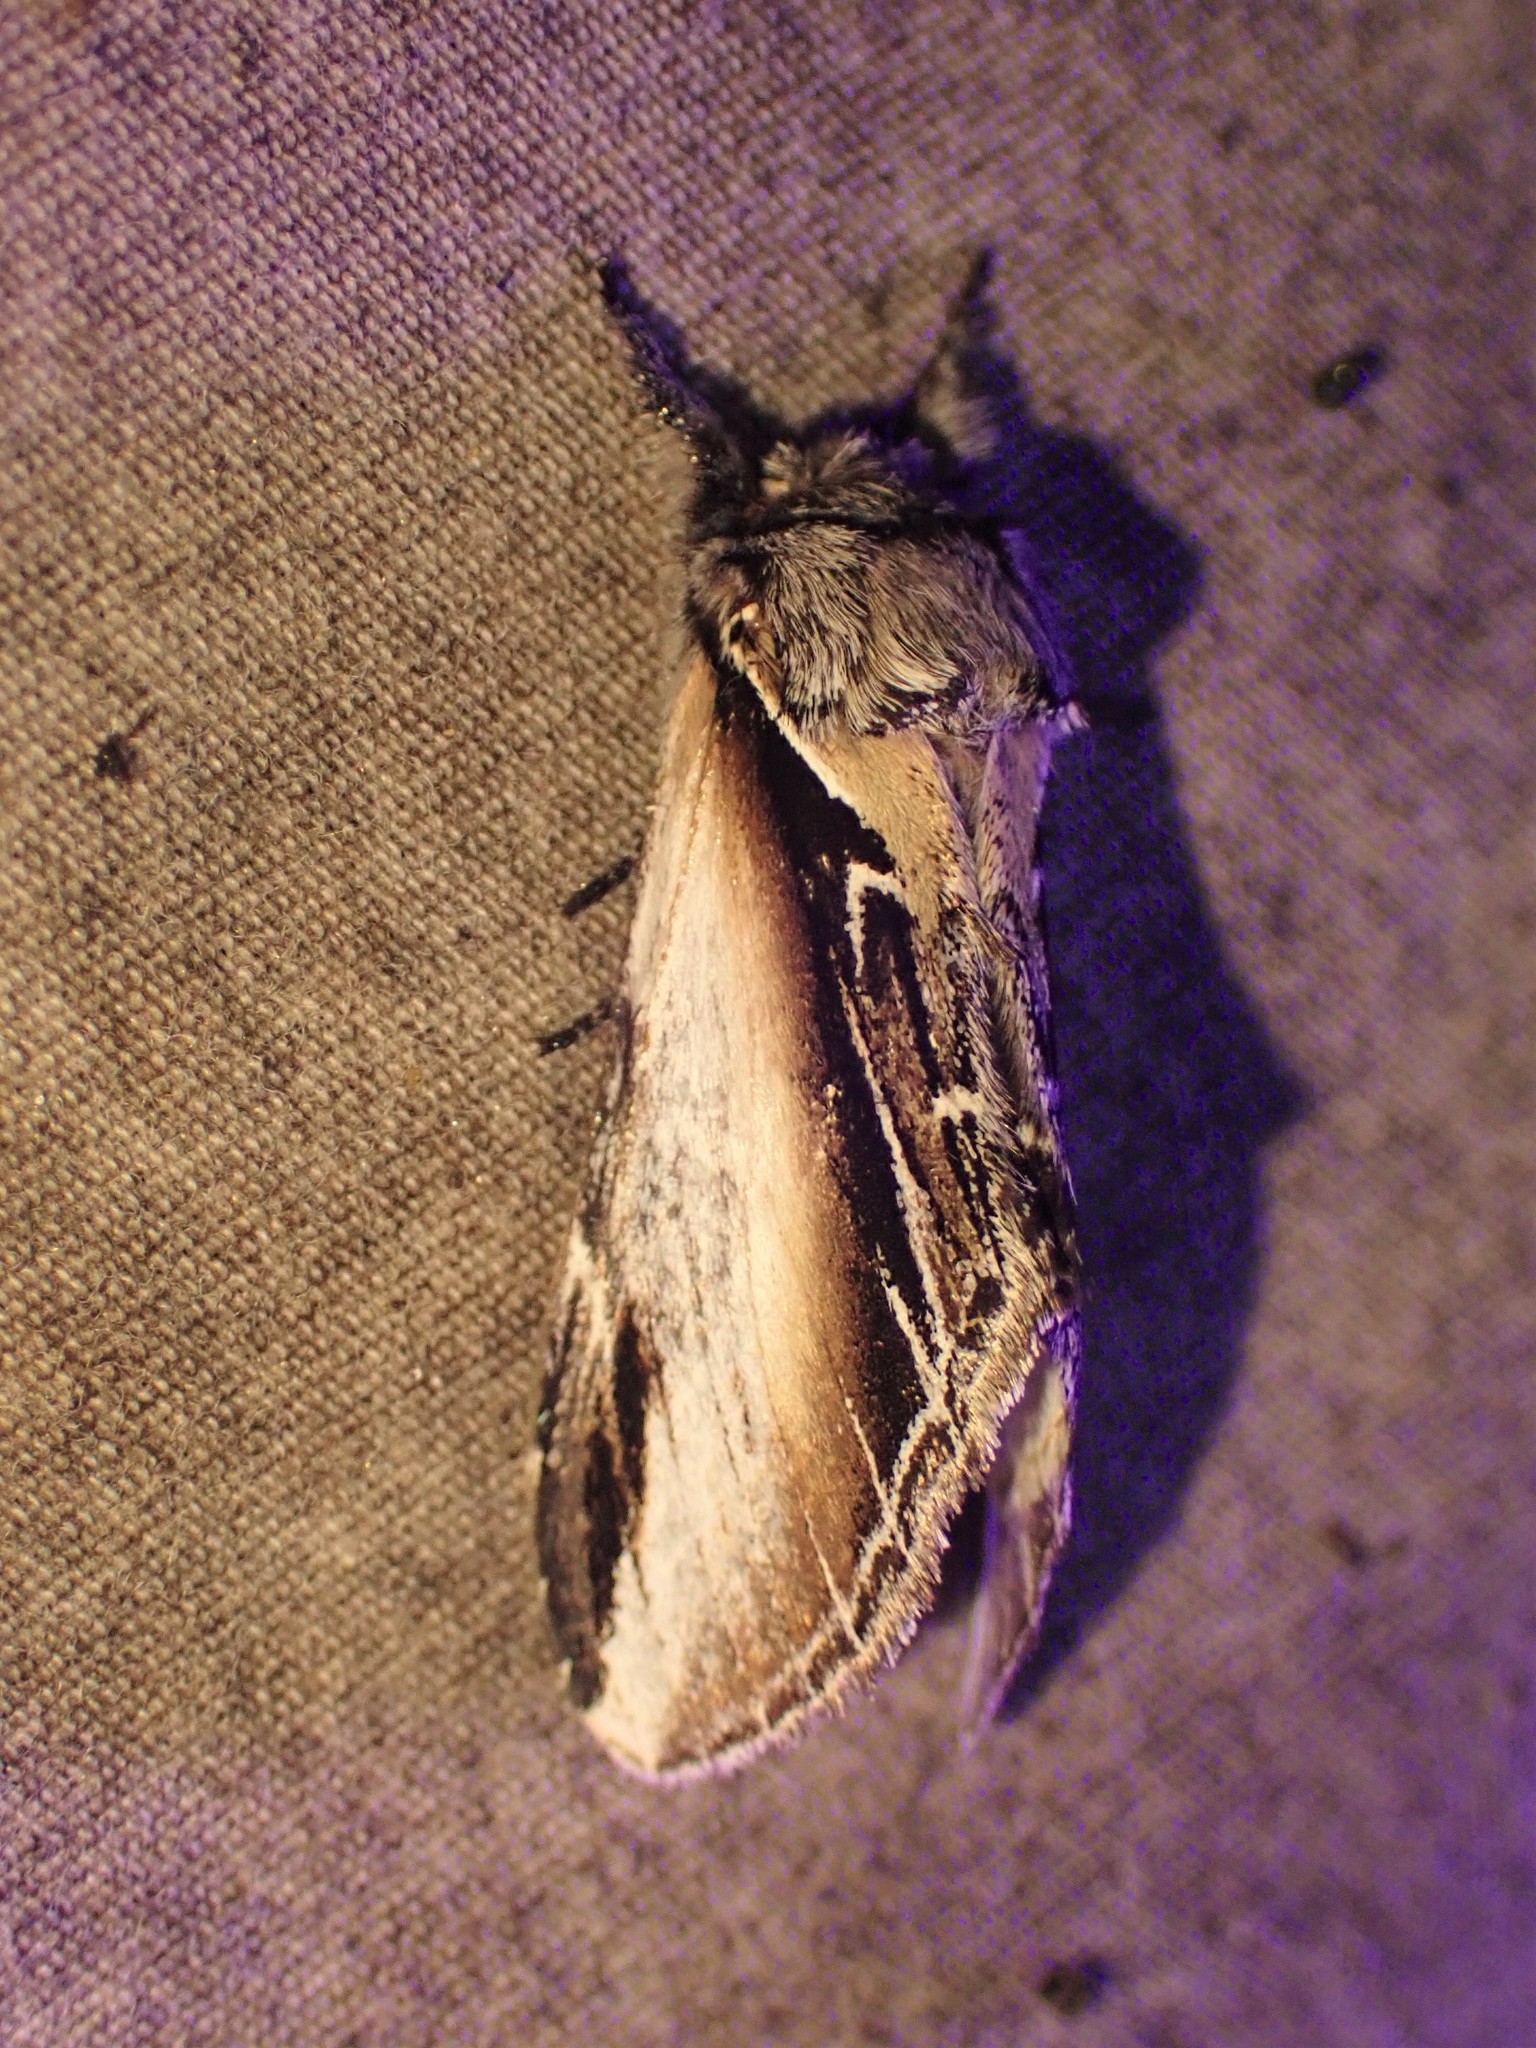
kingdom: Animalia
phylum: Arthropoda
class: Insecta
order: Lepidoptera
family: Notodontidae
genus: Pheosia
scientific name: Pheosia rimosa
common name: Black-rimmed prominent
